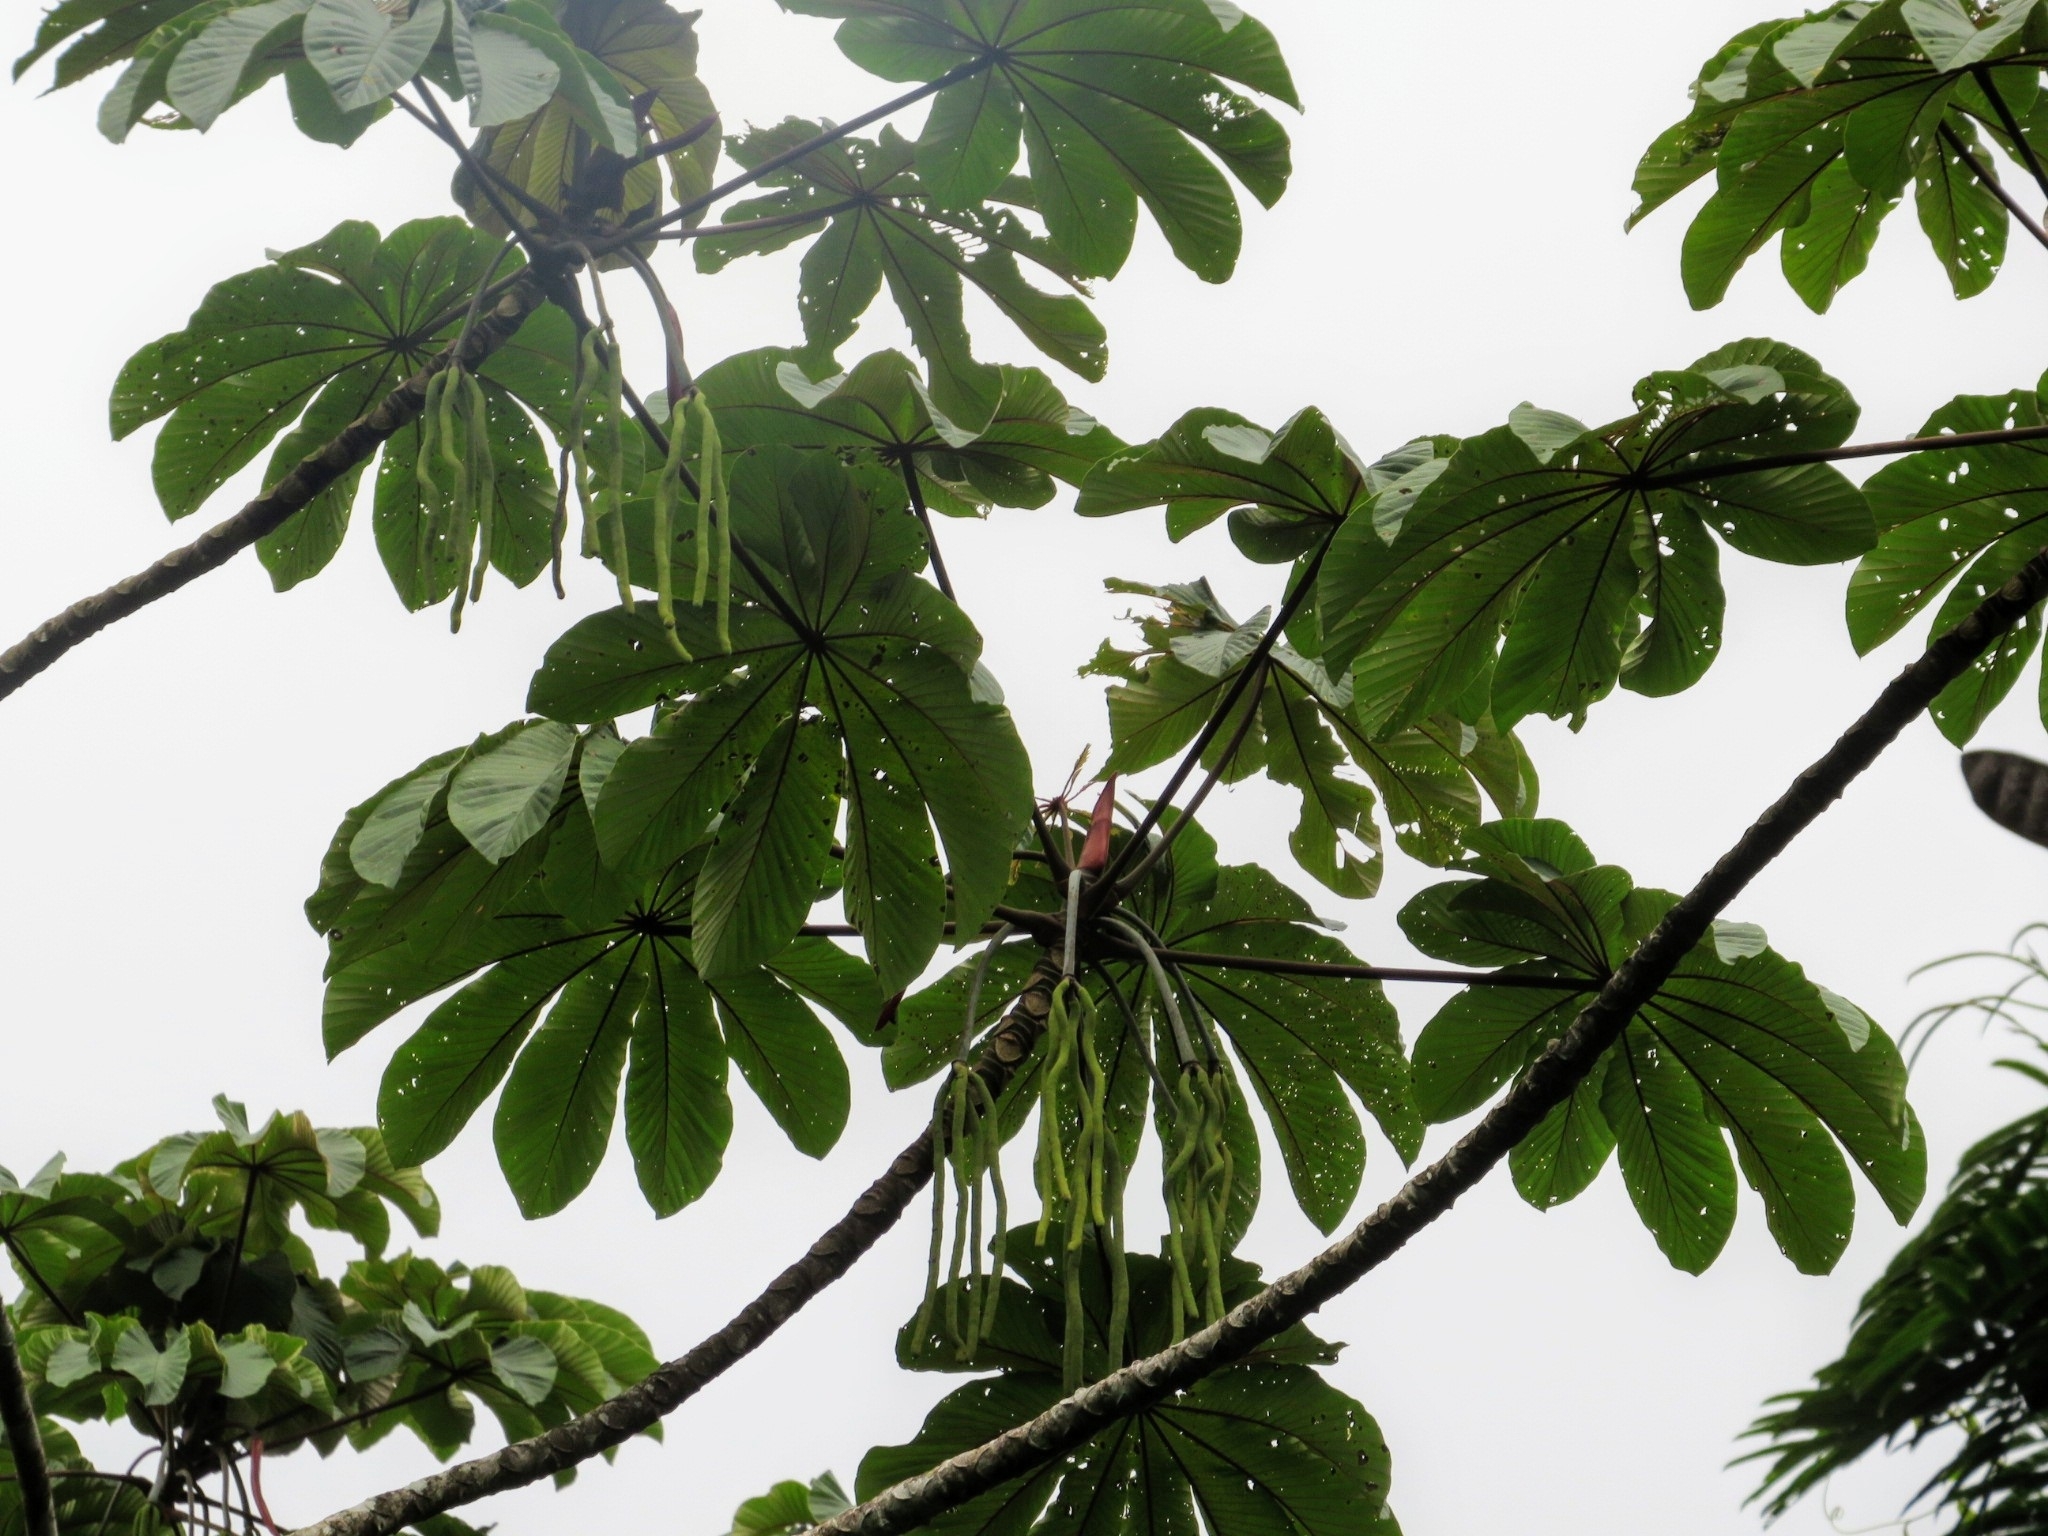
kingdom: Plantae
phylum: Tracheophyta
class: Magnoliopsida
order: Rosales
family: Urticaceae
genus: Cecropia
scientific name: Cecropia obtusifolia
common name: Trumpet tree
